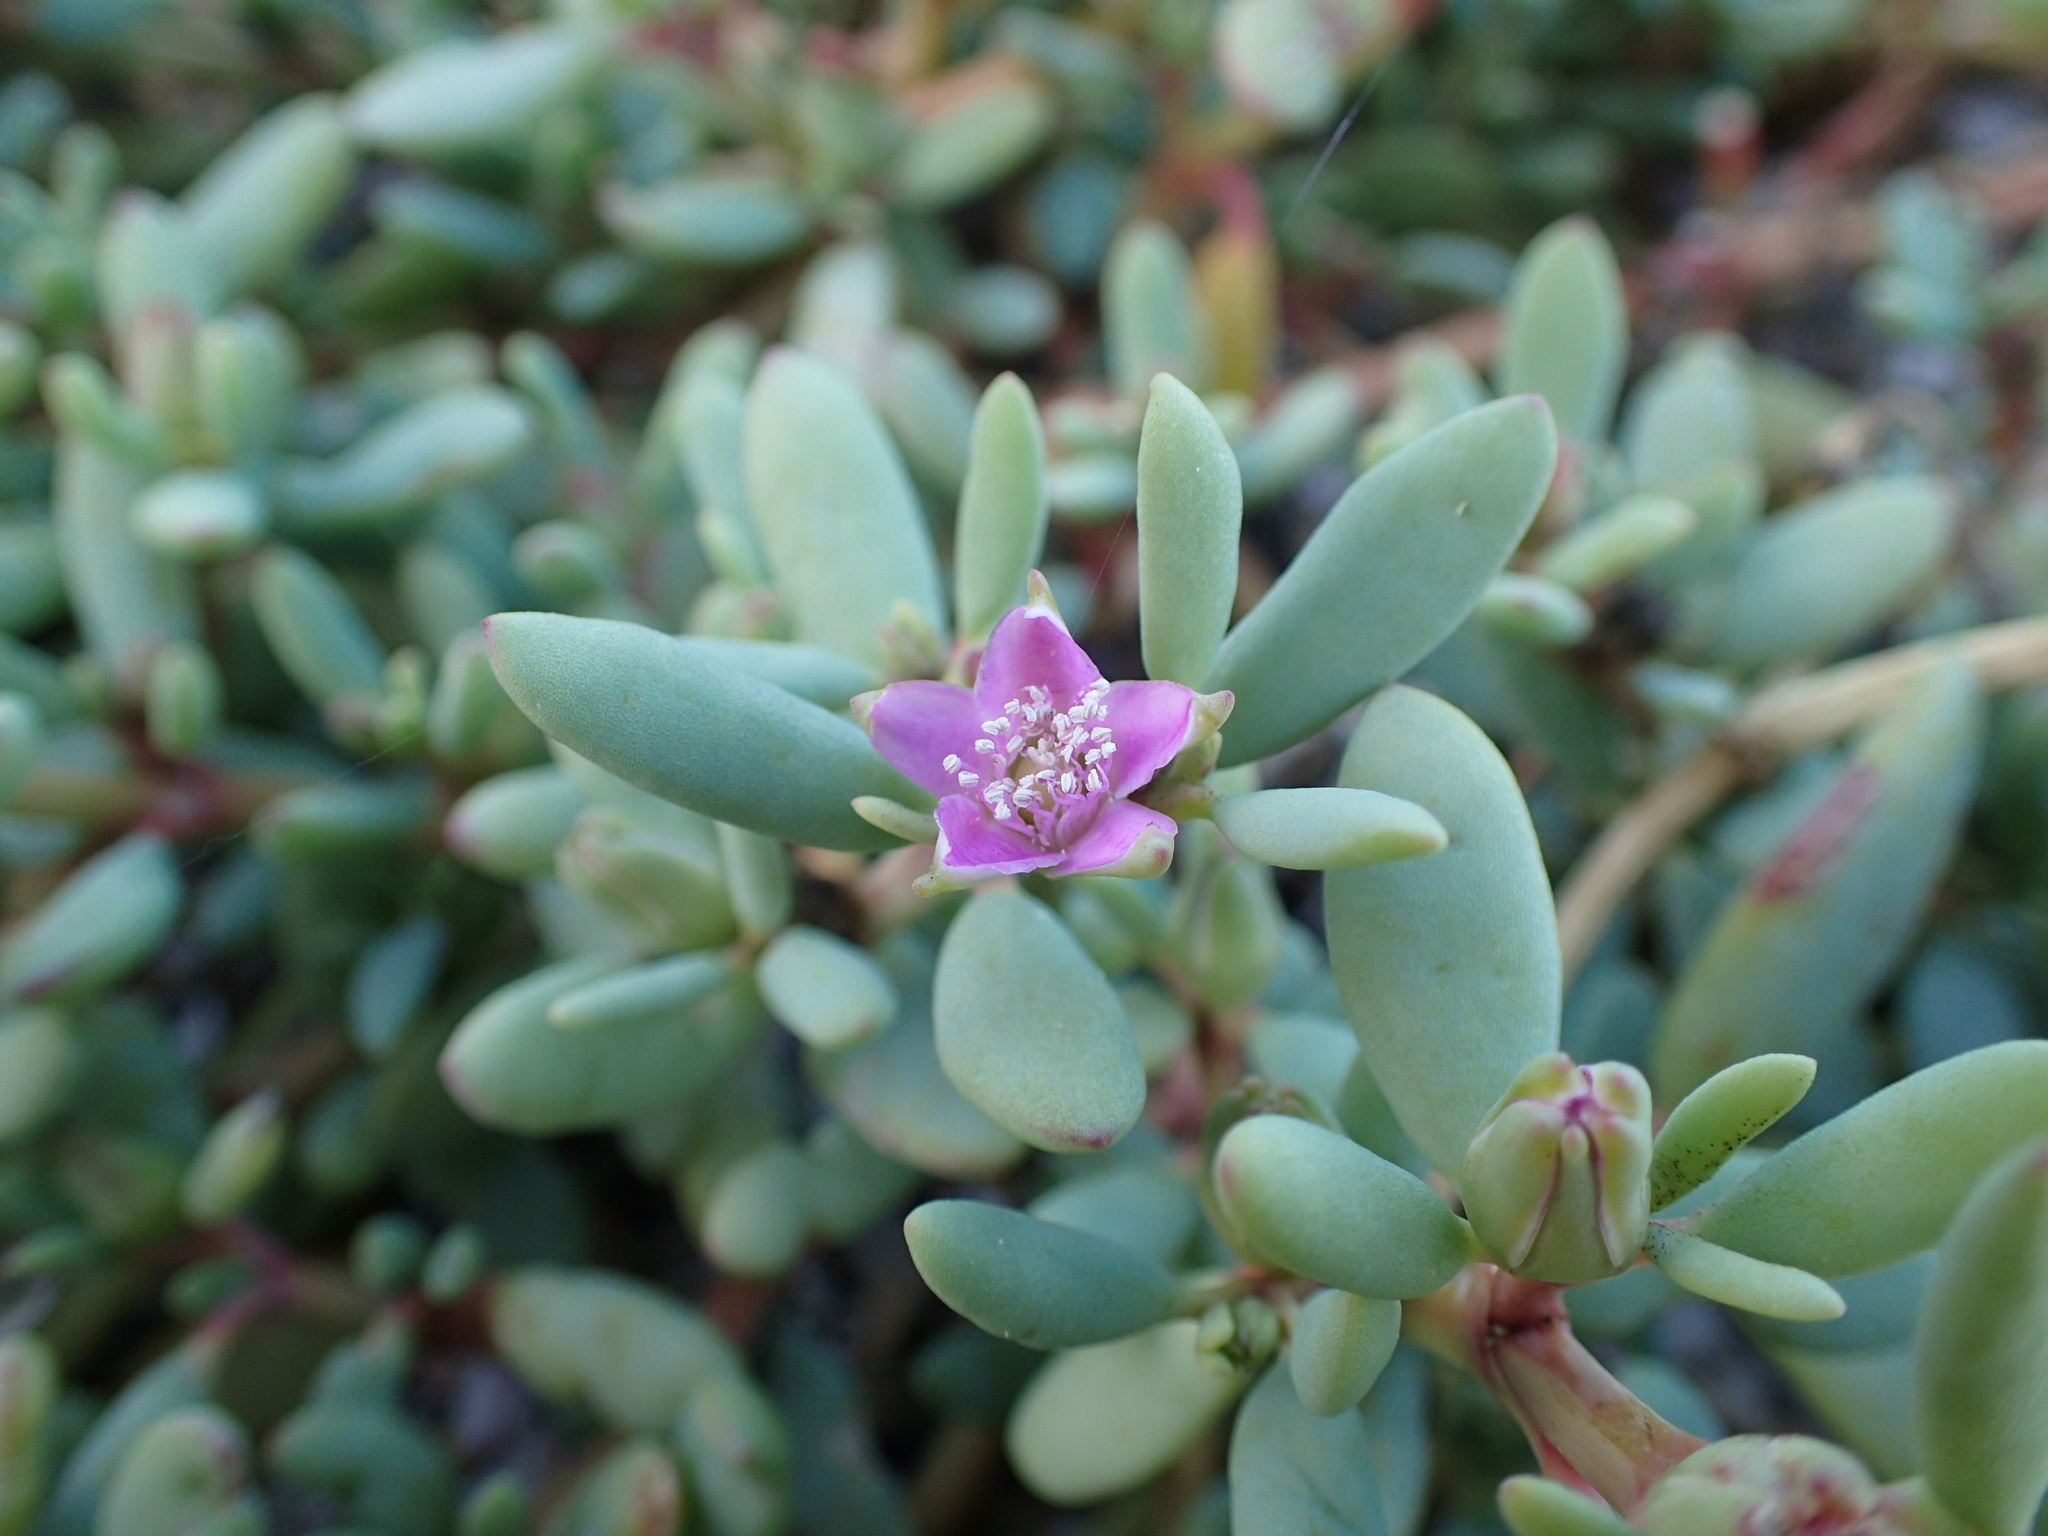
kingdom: Plantae
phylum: Tracheophyta
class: Magnoliopsida
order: Caryophyllales
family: Aizoaceae
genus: Sesuvium
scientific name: Sesuvium portulacastrum
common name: Sea-purslane
